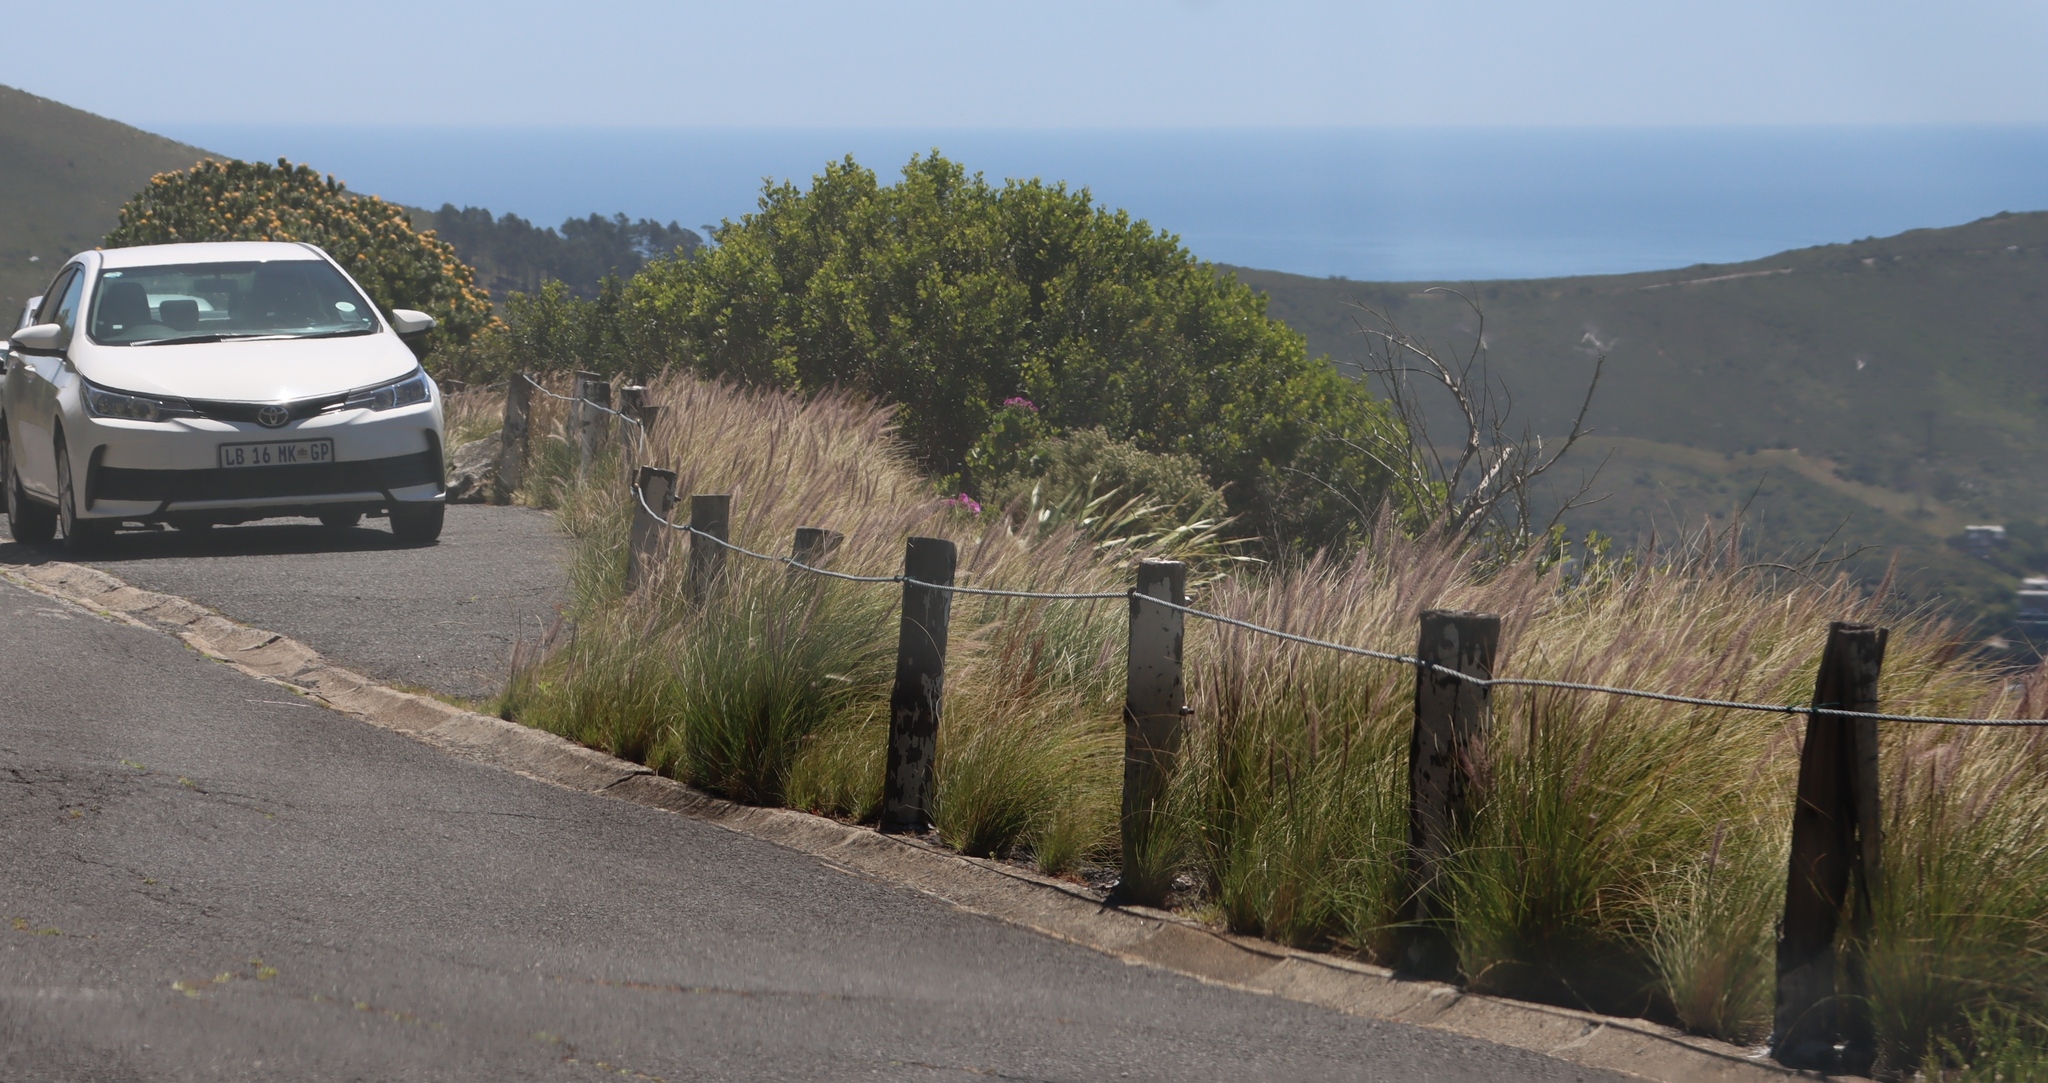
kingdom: Plantae
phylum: Tracheophyta
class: Liliopsida
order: Poales
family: Poaceae
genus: Cenchrus
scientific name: Cenchrus setaceus
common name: Crimson fountaingrass
